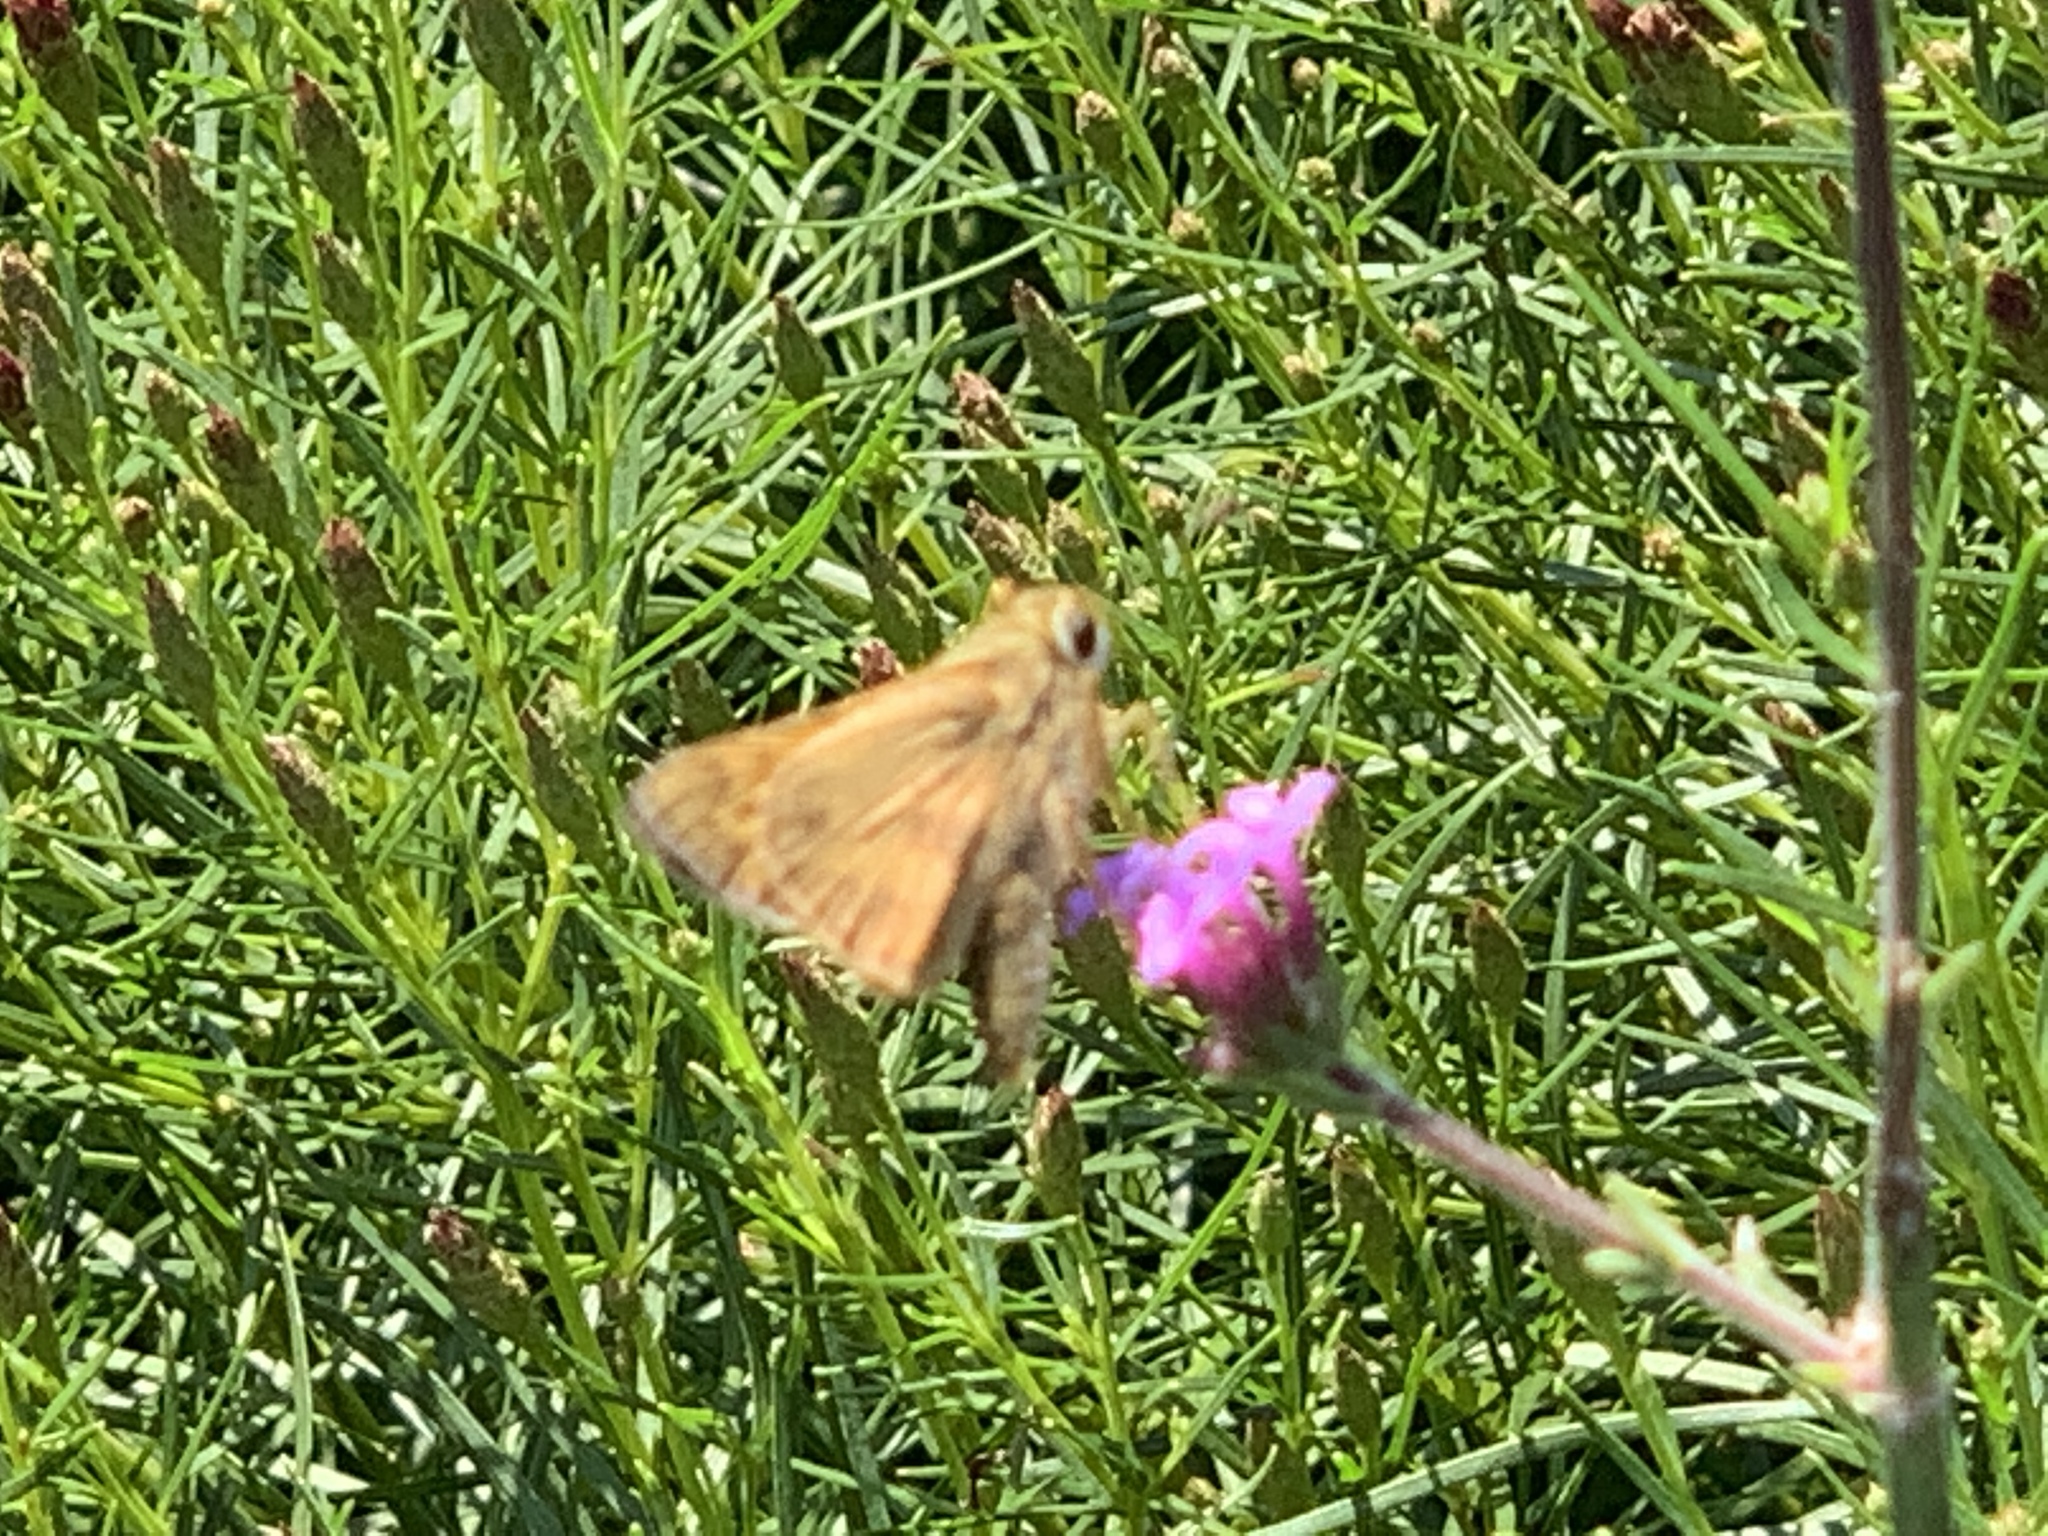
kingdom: Animalia
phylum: Arthropoda
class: Insecta
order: Lepidoptera
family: Hesperiidae
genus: Atalopedes
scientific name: Atalopedes
